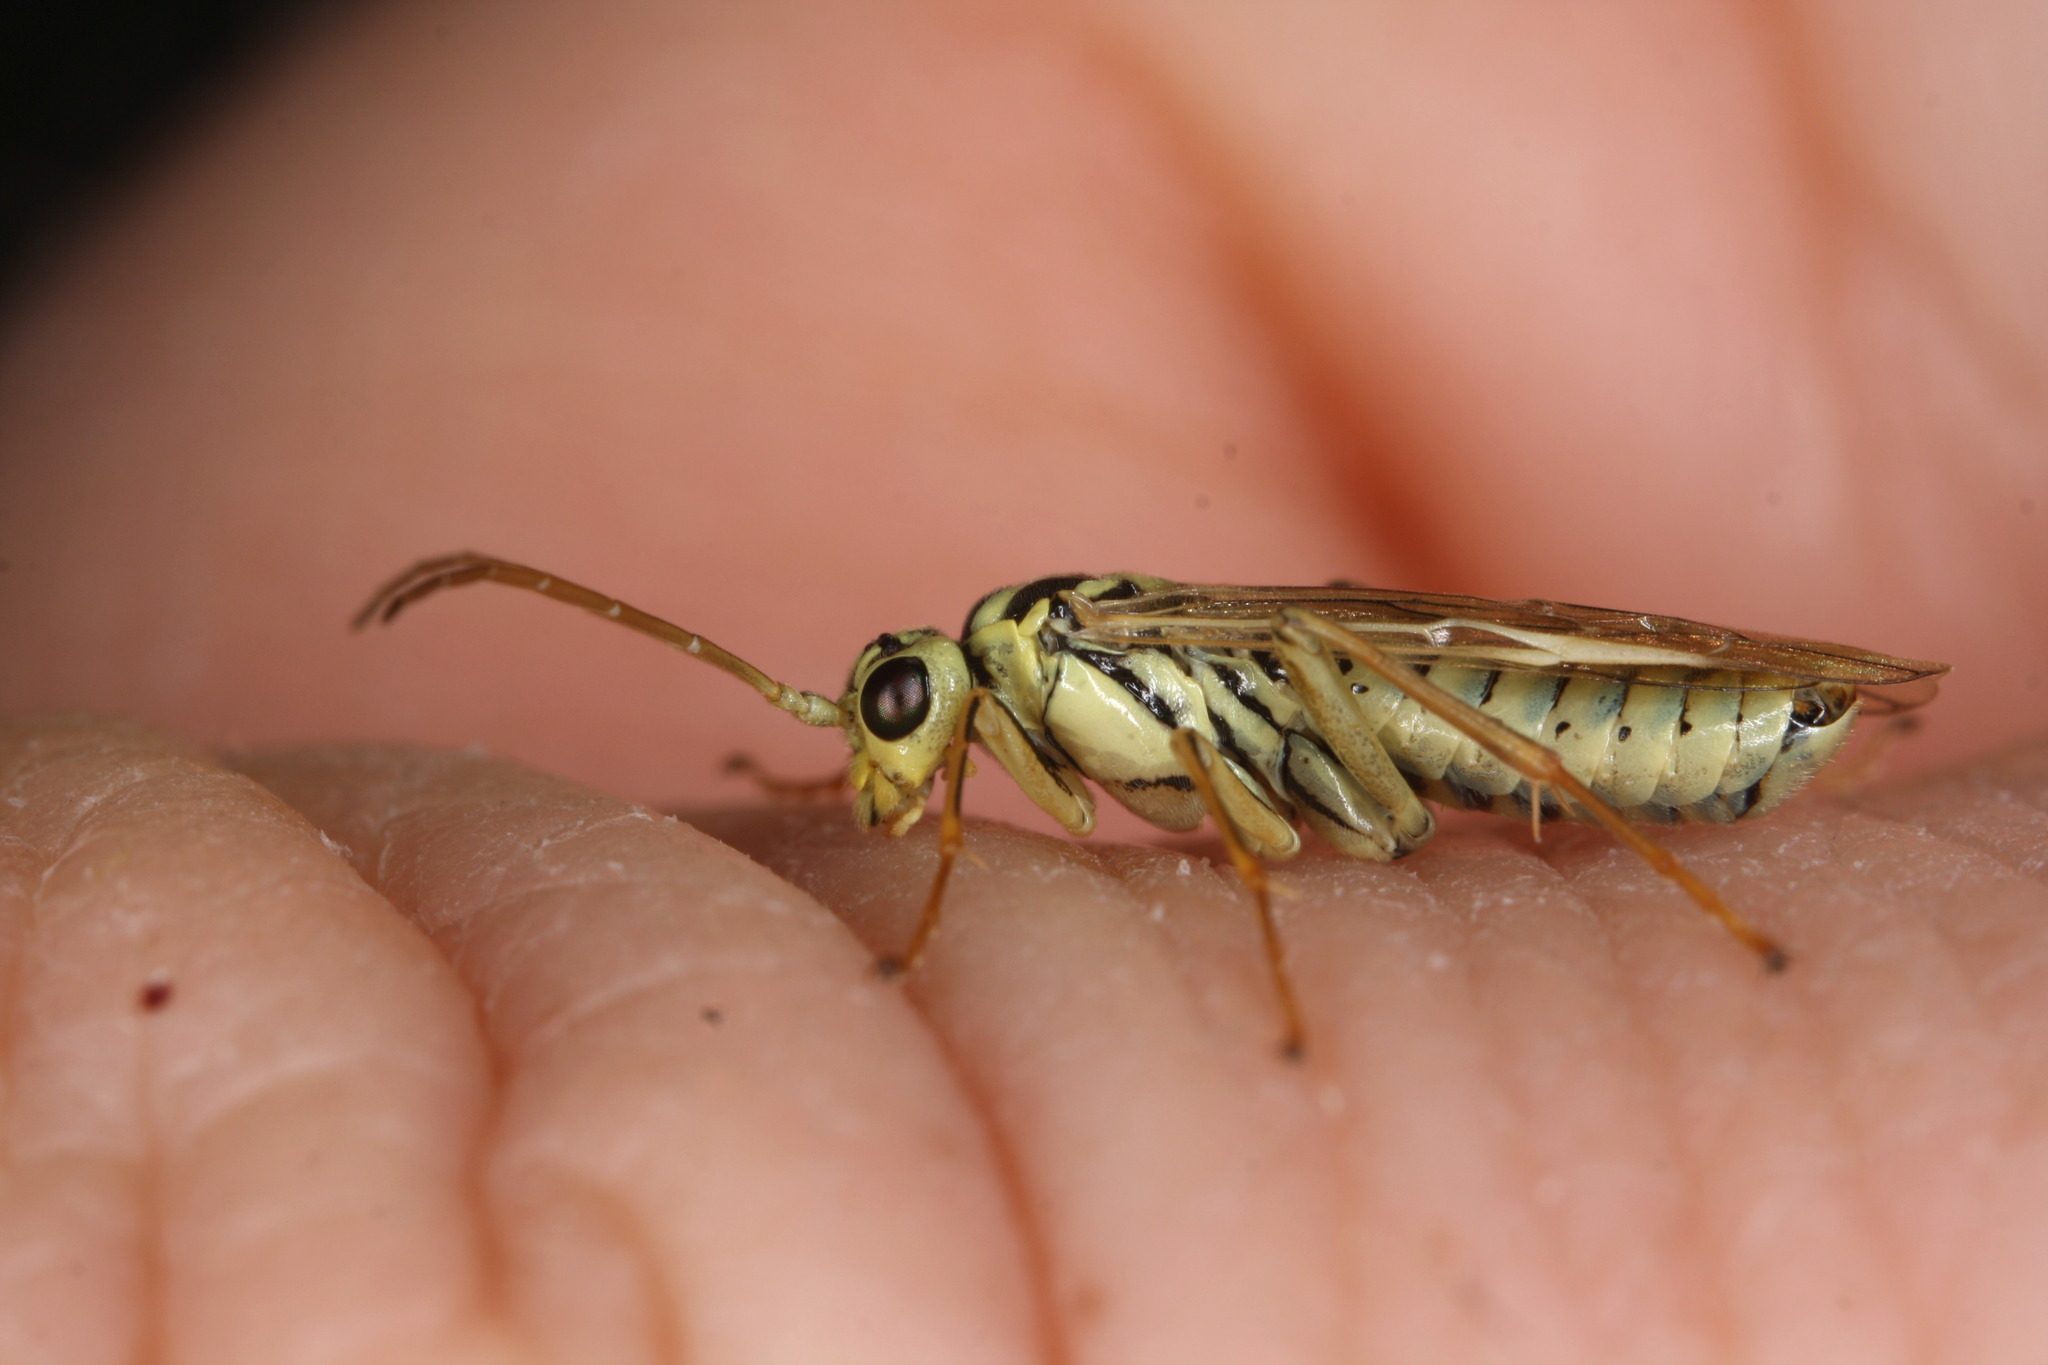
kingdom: Animalia
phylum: Arthropoda
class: Insecta
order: Hymenoptera
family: Tenthredinidae
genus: Aglaostigma
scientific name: Aglaostigma lichtwardti
